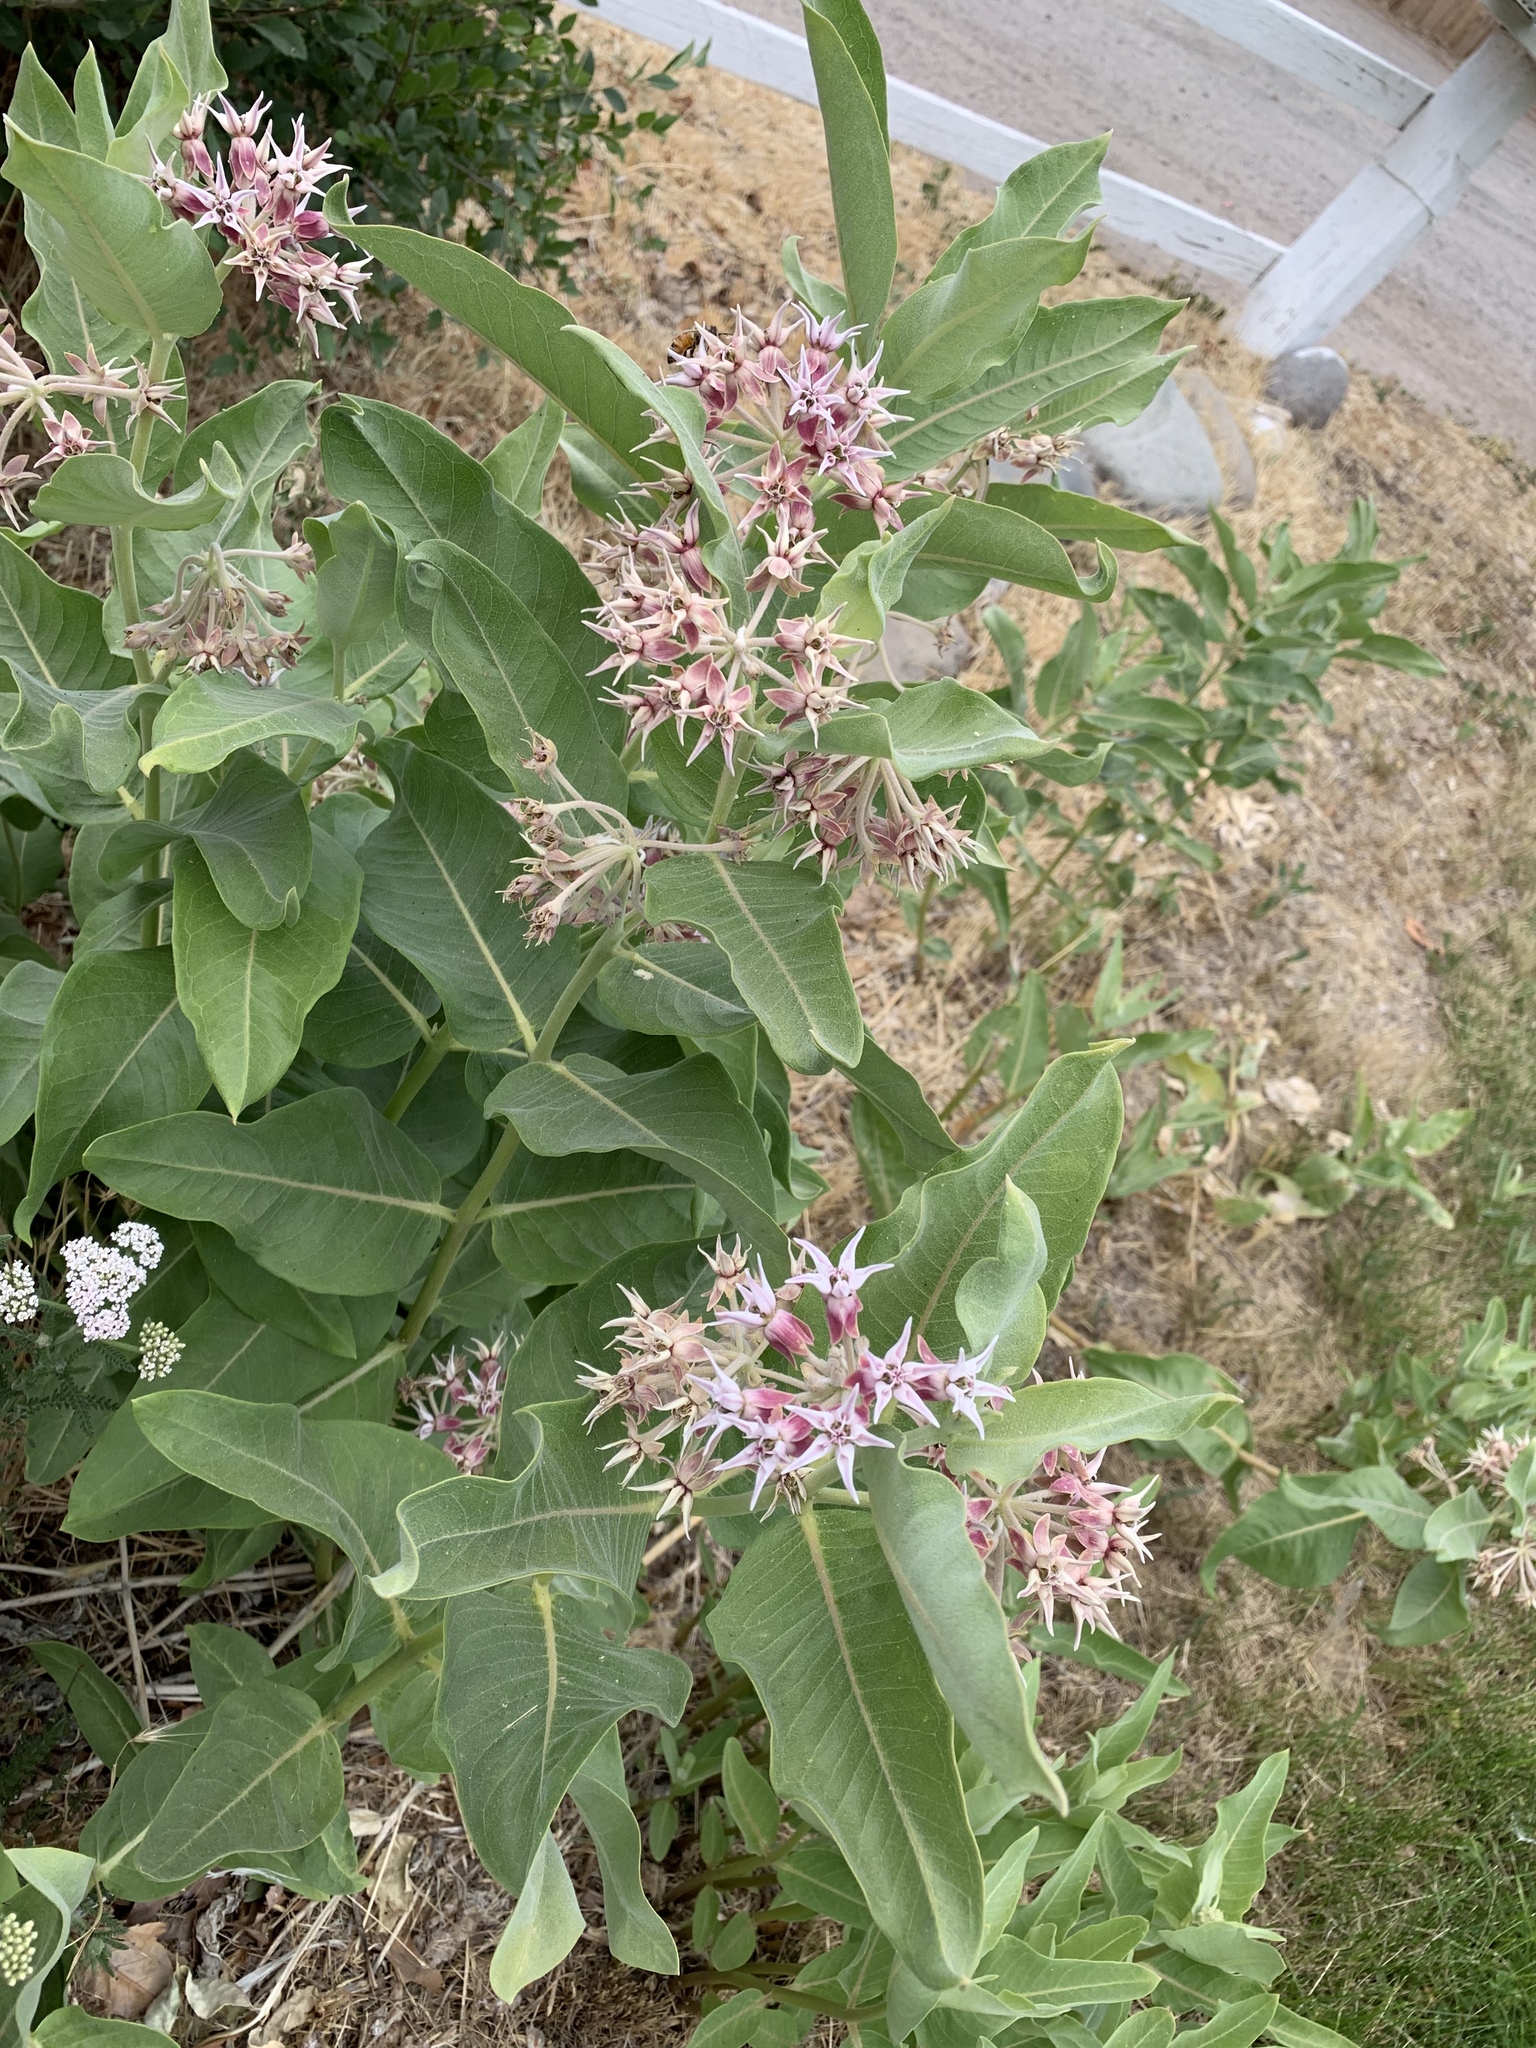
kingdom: Plantae
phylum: Tracheophyta
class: Magnoliopsida
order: Gentianales
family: Apocynaceae
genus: Asclepias
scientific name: Asclepias speciosa
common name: Showy milkweed
